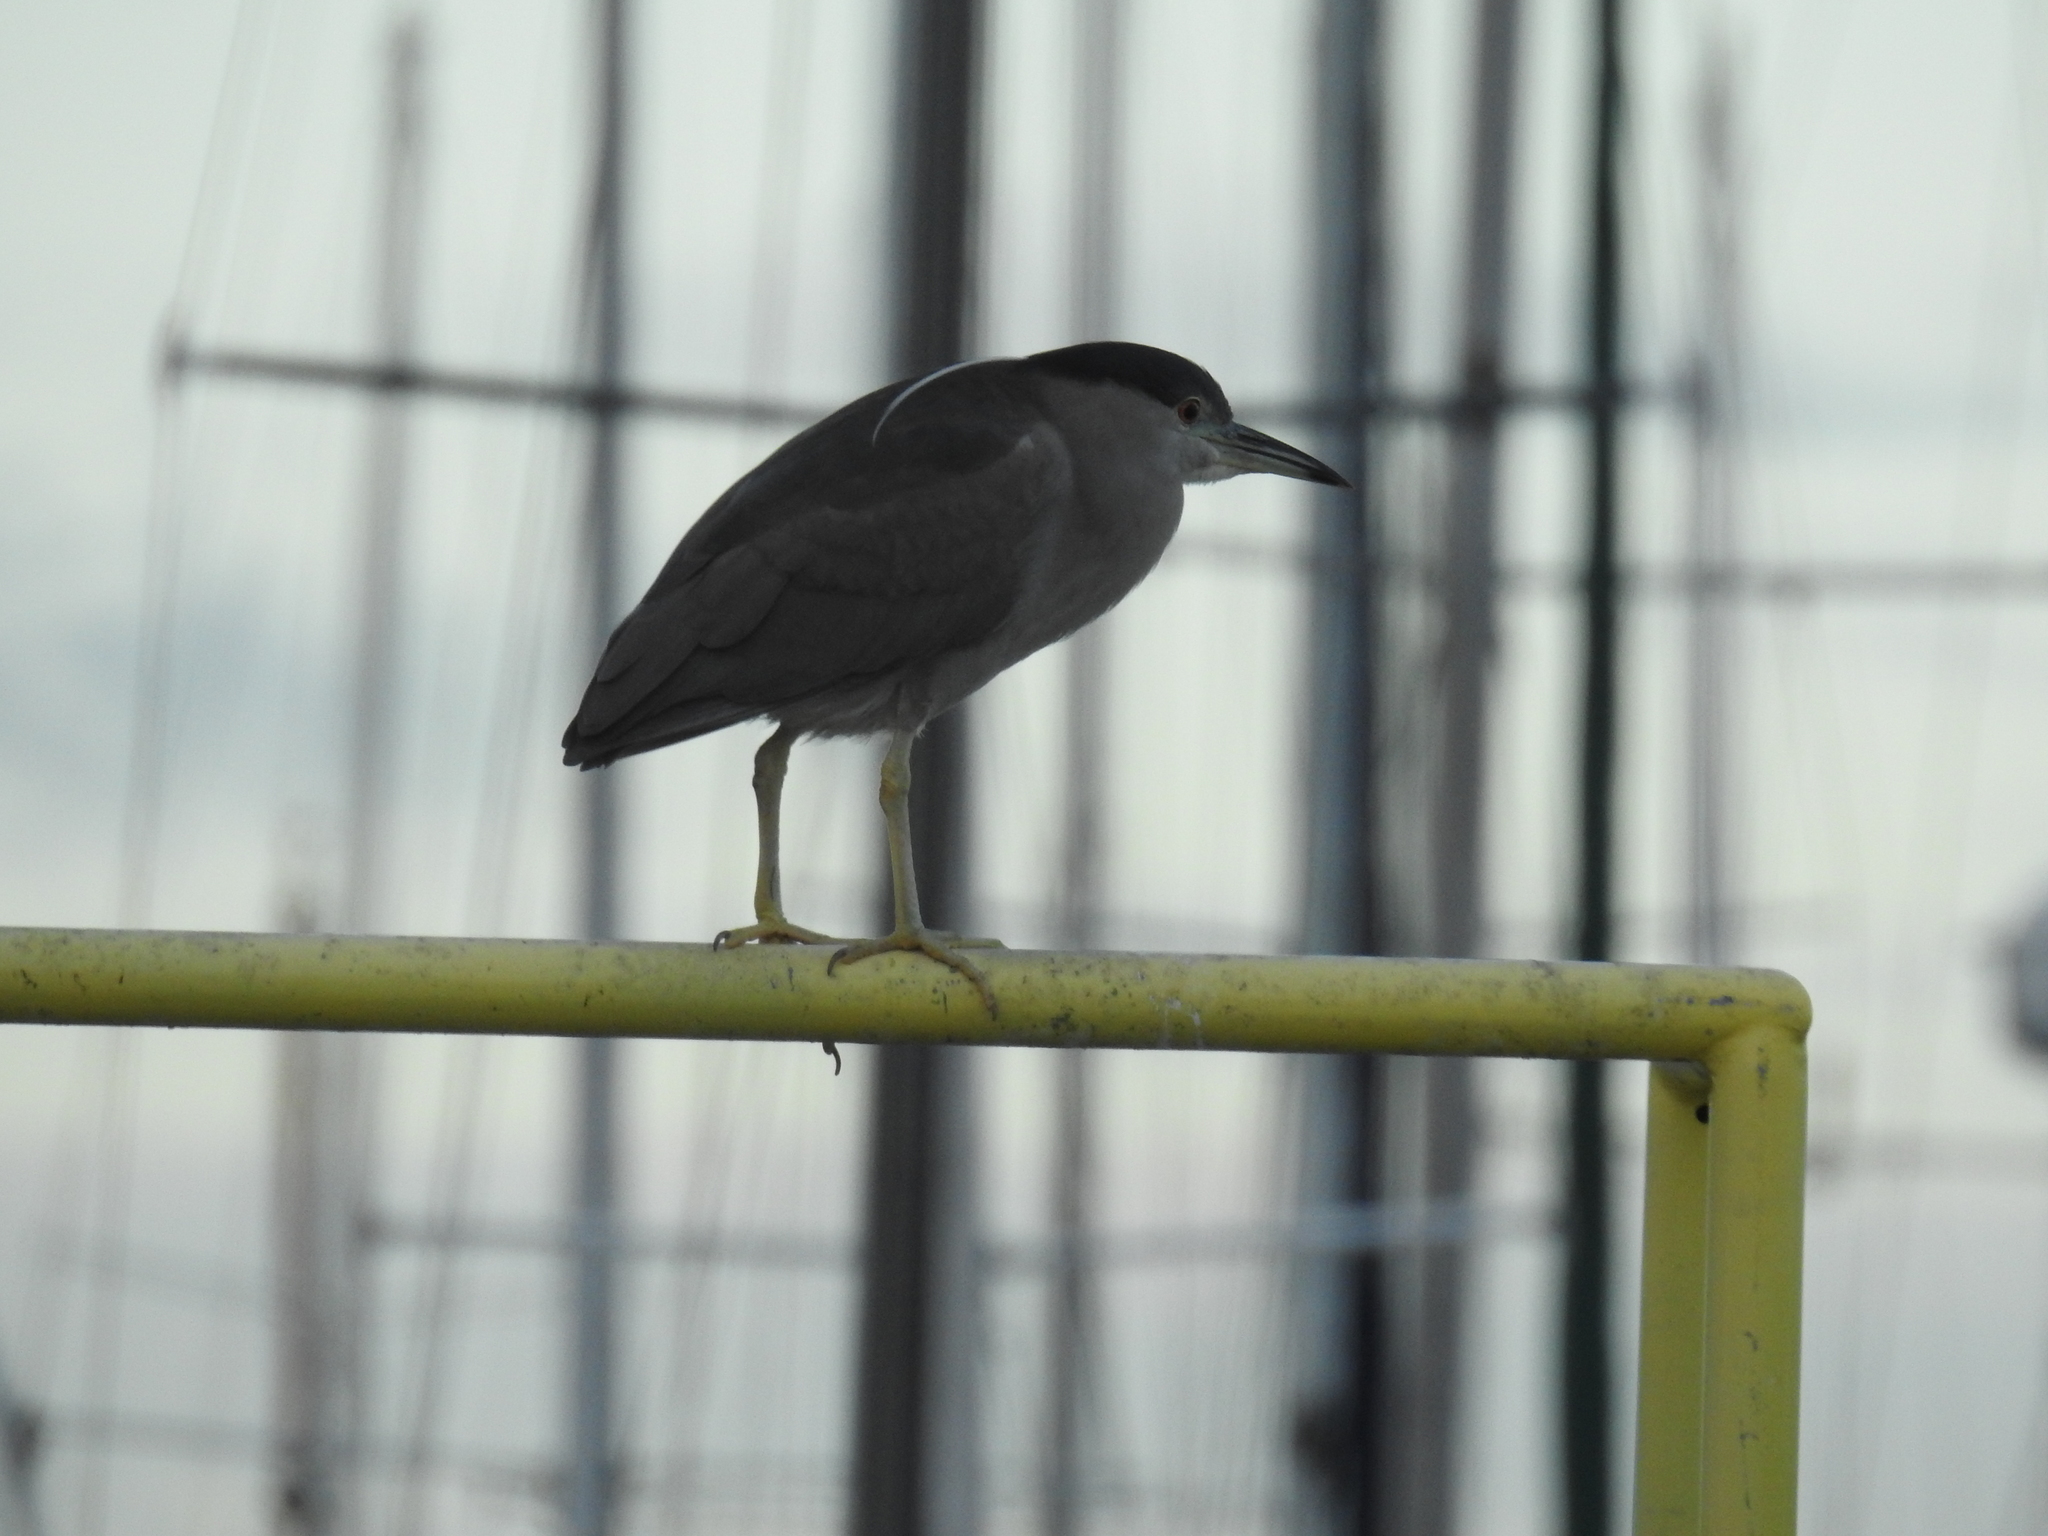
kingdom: Animalia
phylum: Chordata
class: Aves
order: Pelecaniformes
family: Ardeidae
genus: Nycticorax
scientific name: Nycticorax nycticorax
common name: Black-crowned night heron
